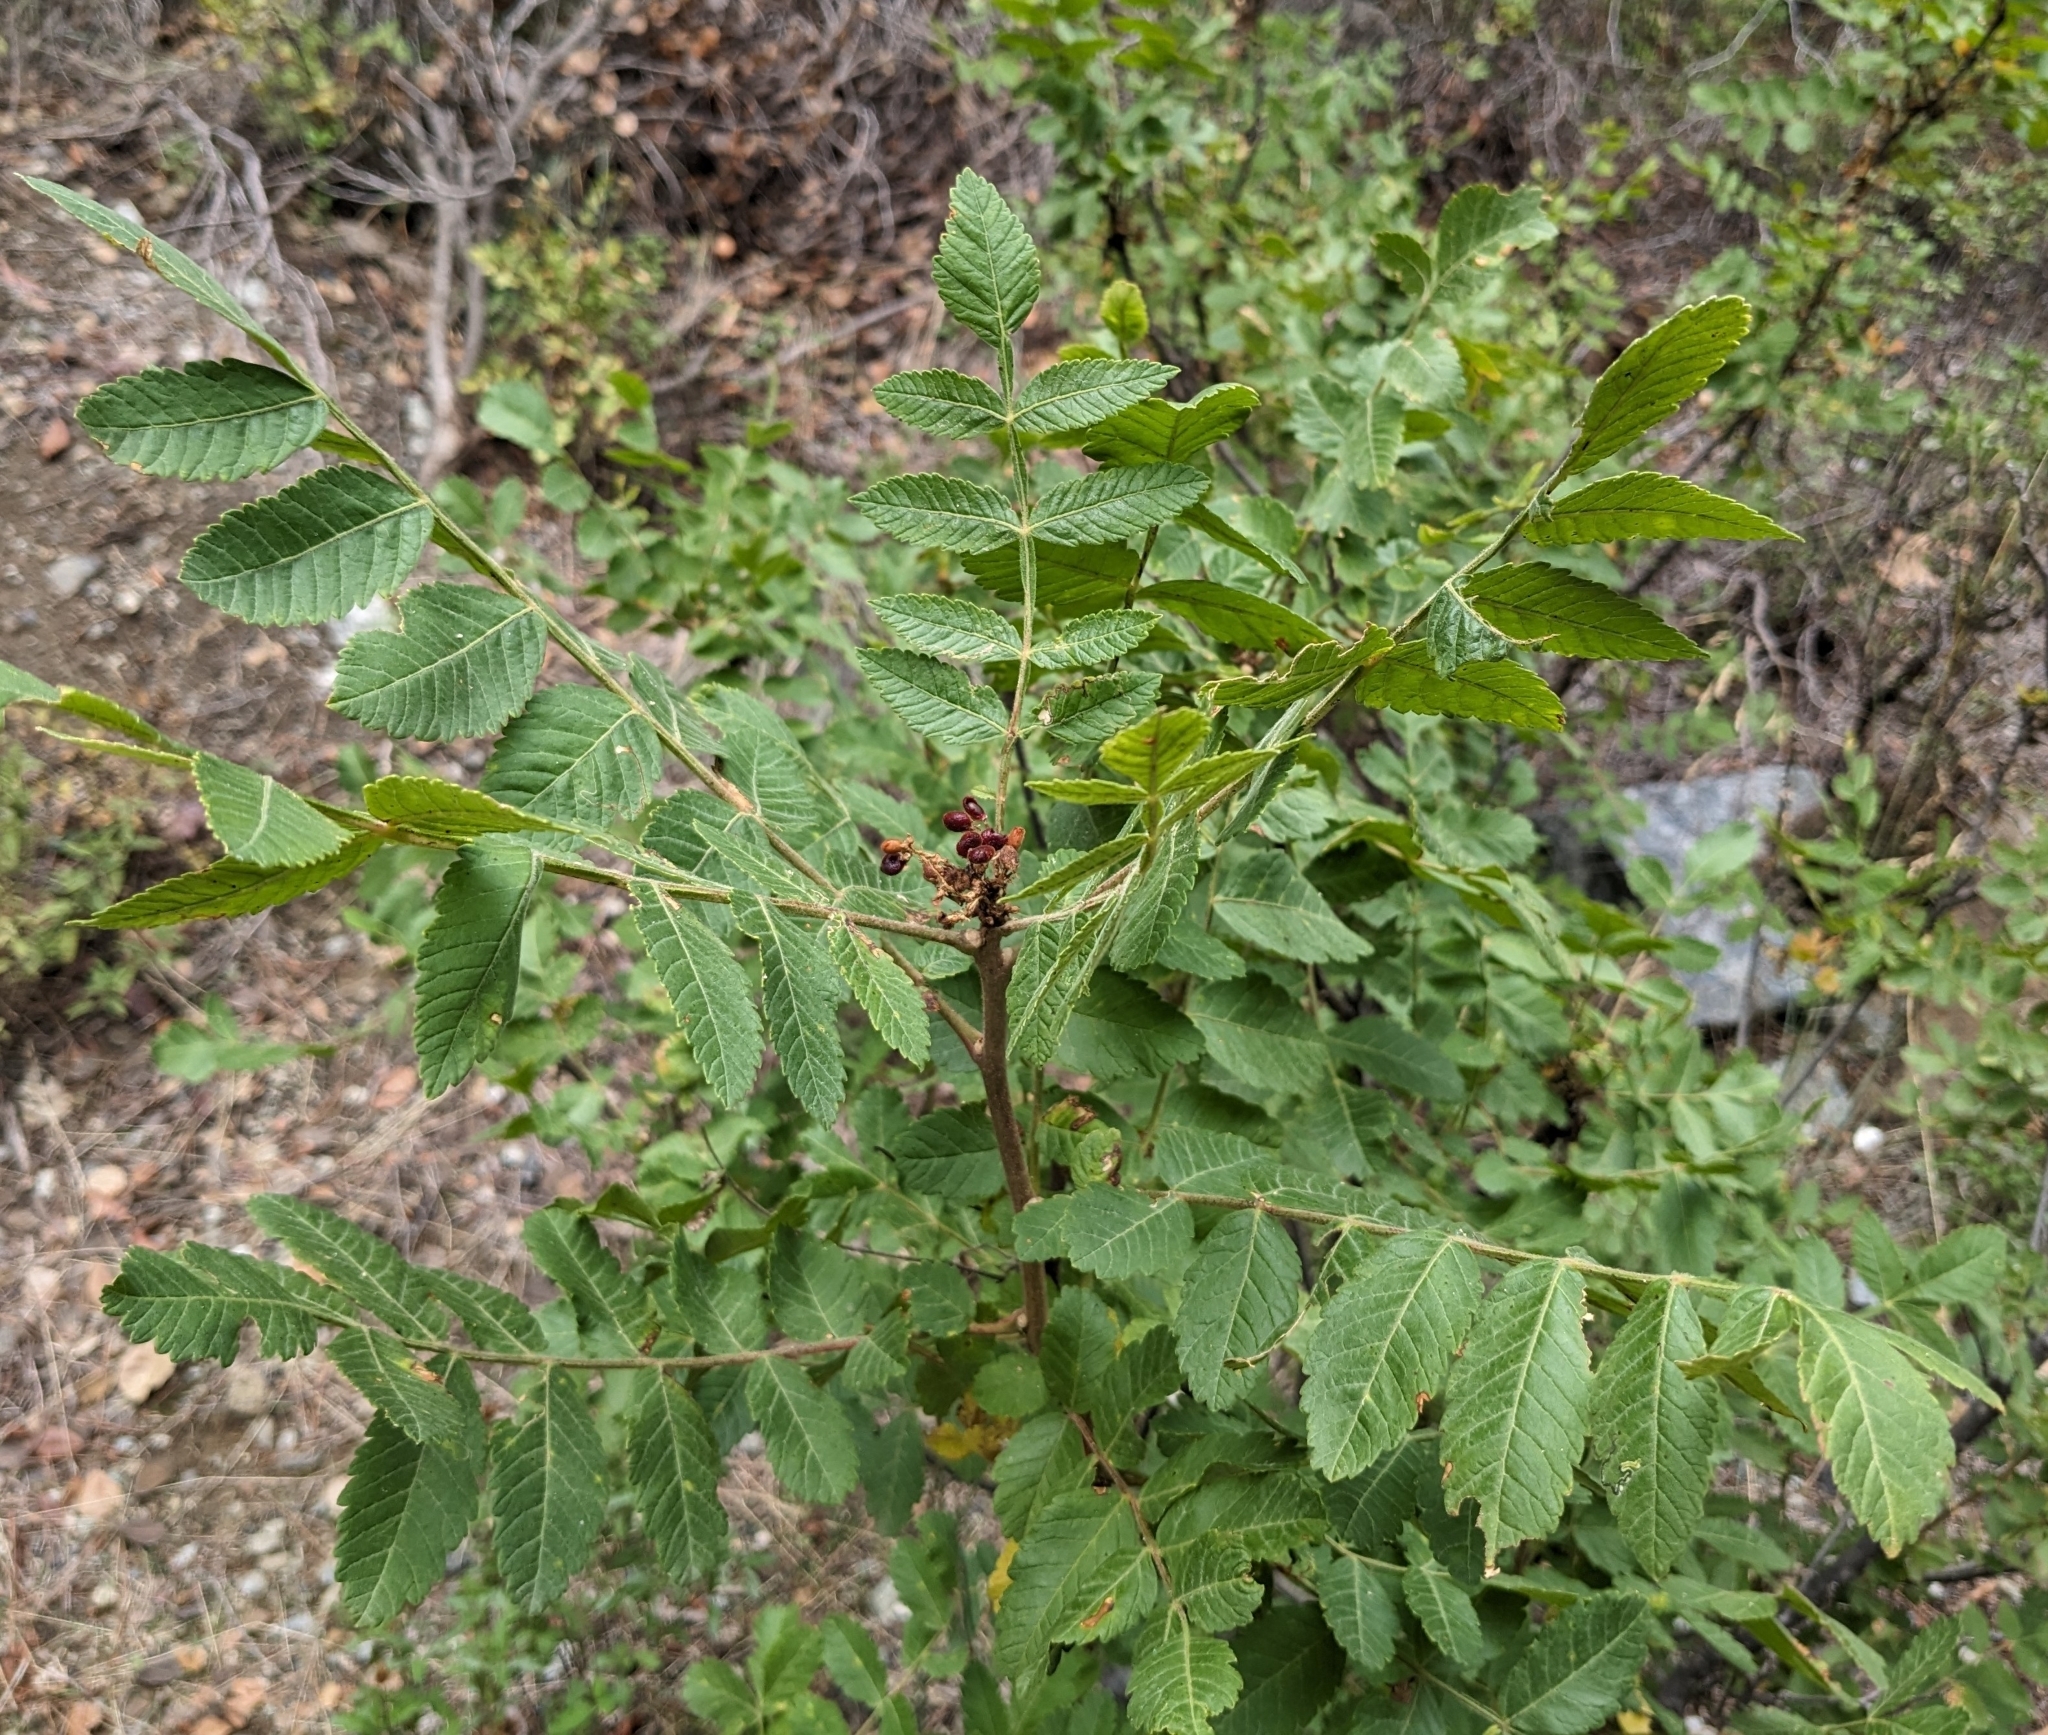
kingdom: Plantae
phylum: Tracheophyta
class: Magnoliopsida
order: Sapindales
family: Anacardiaceae
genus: Rhus
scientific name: Rhus coriaria
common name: Tanner's sumach
